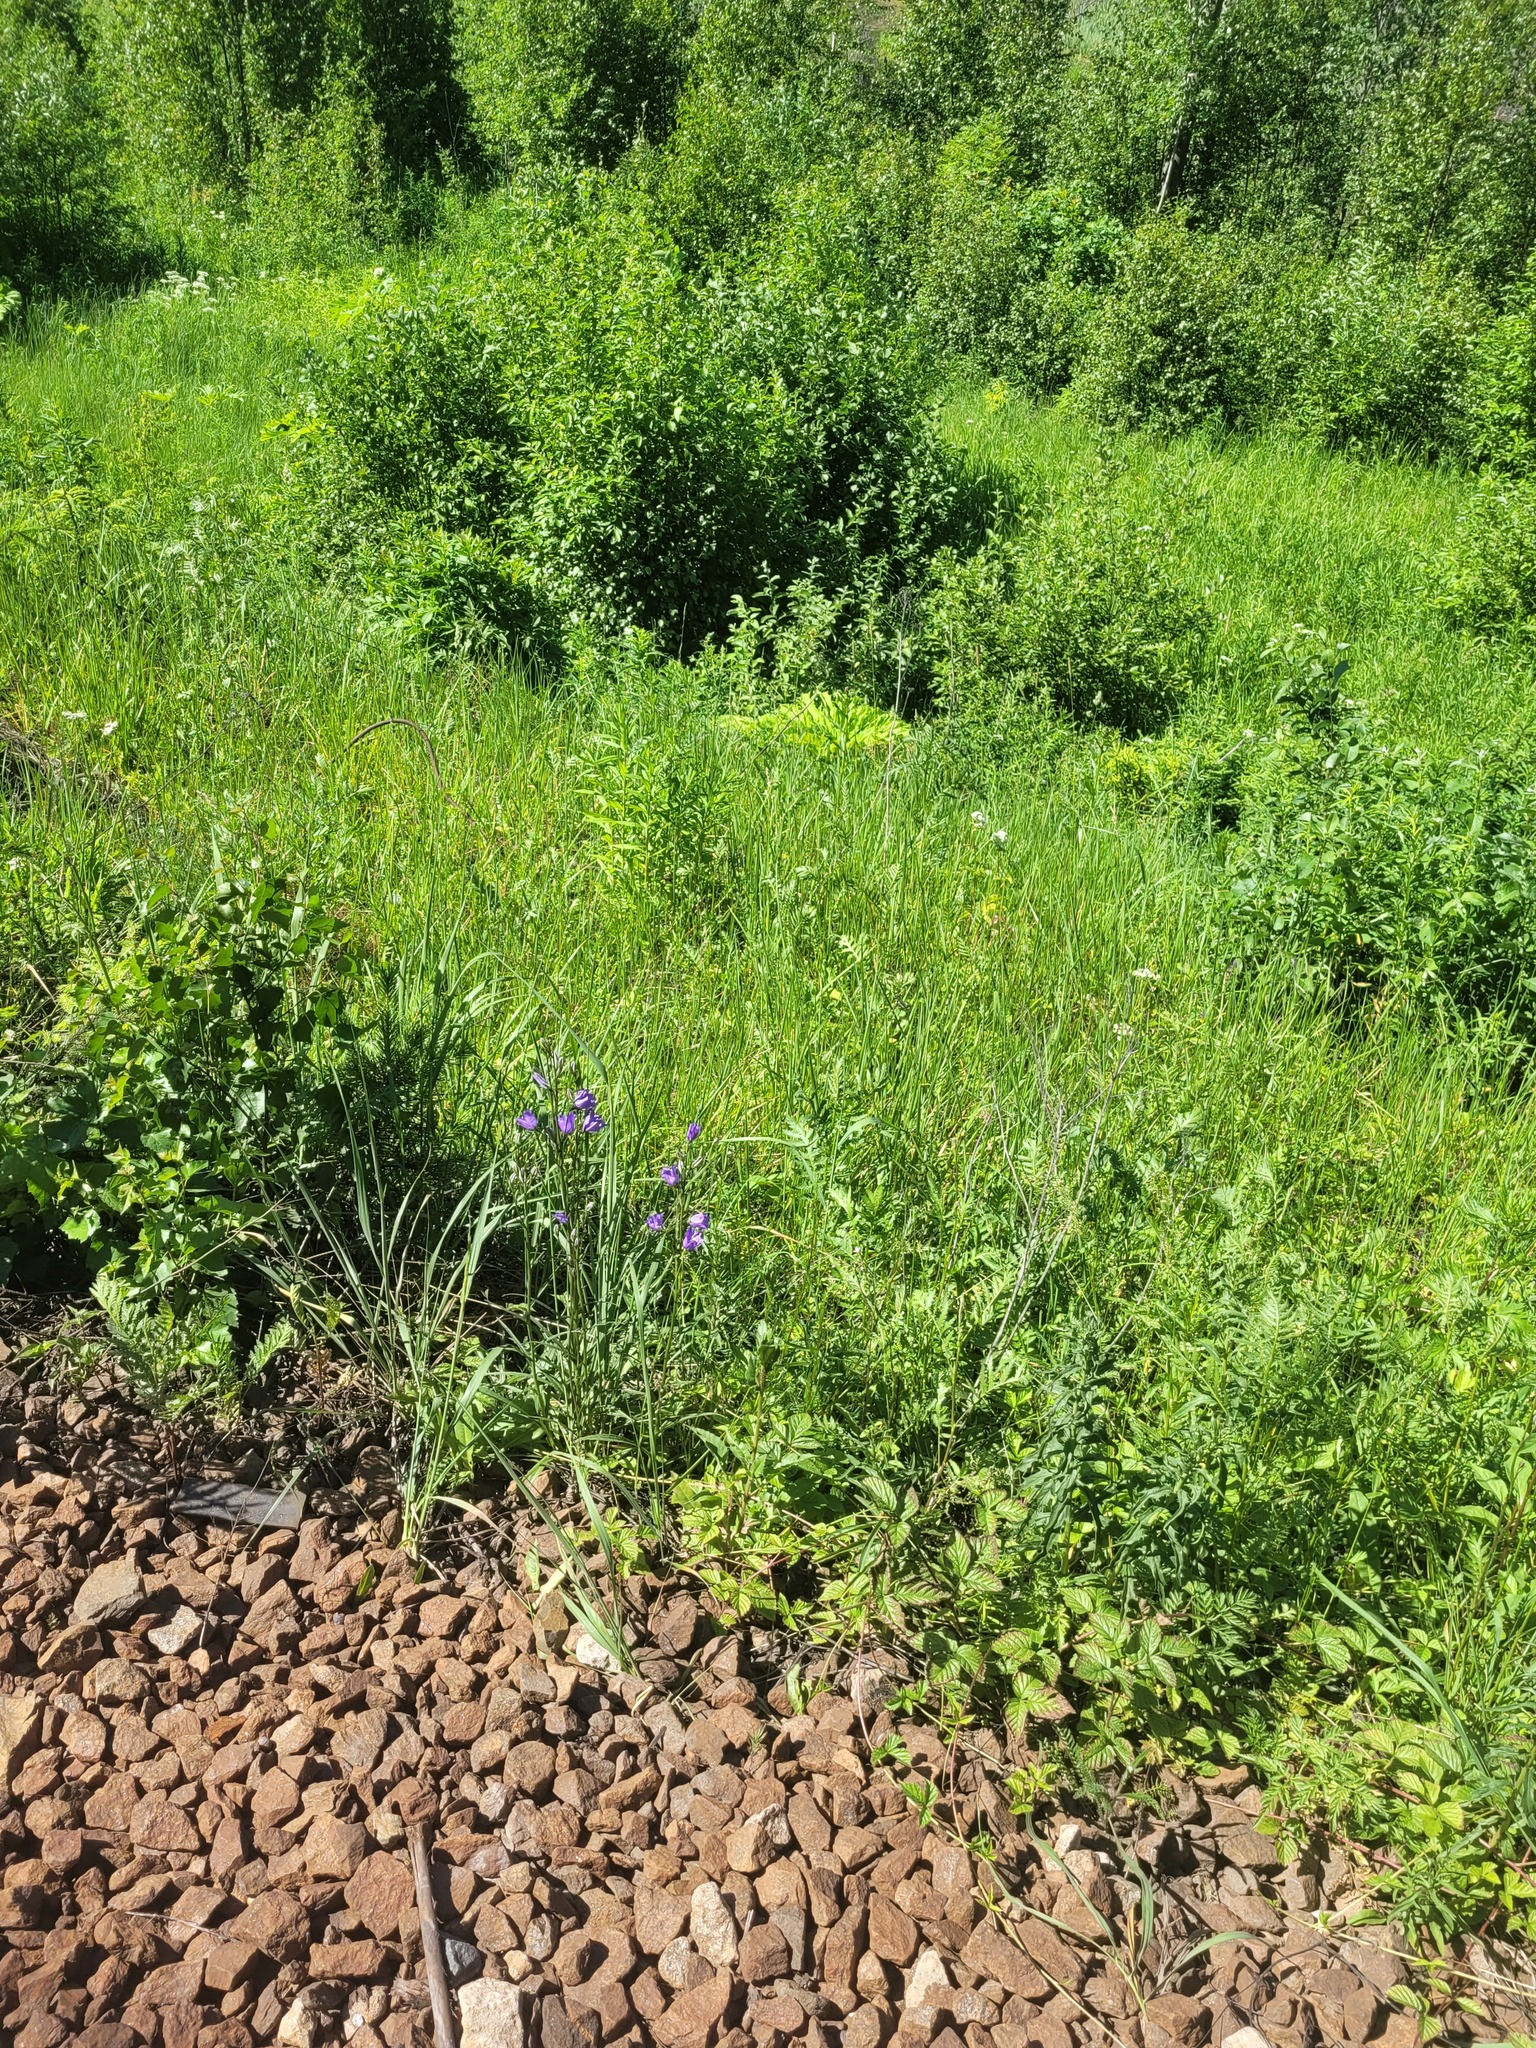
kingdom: Plantae
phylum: Tracheophyta
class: Magnoliopsida
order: Asterales
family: Campanulaceae
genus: Campanula
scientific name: Campanula persicifolia
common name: Peach-leaved bellflower
